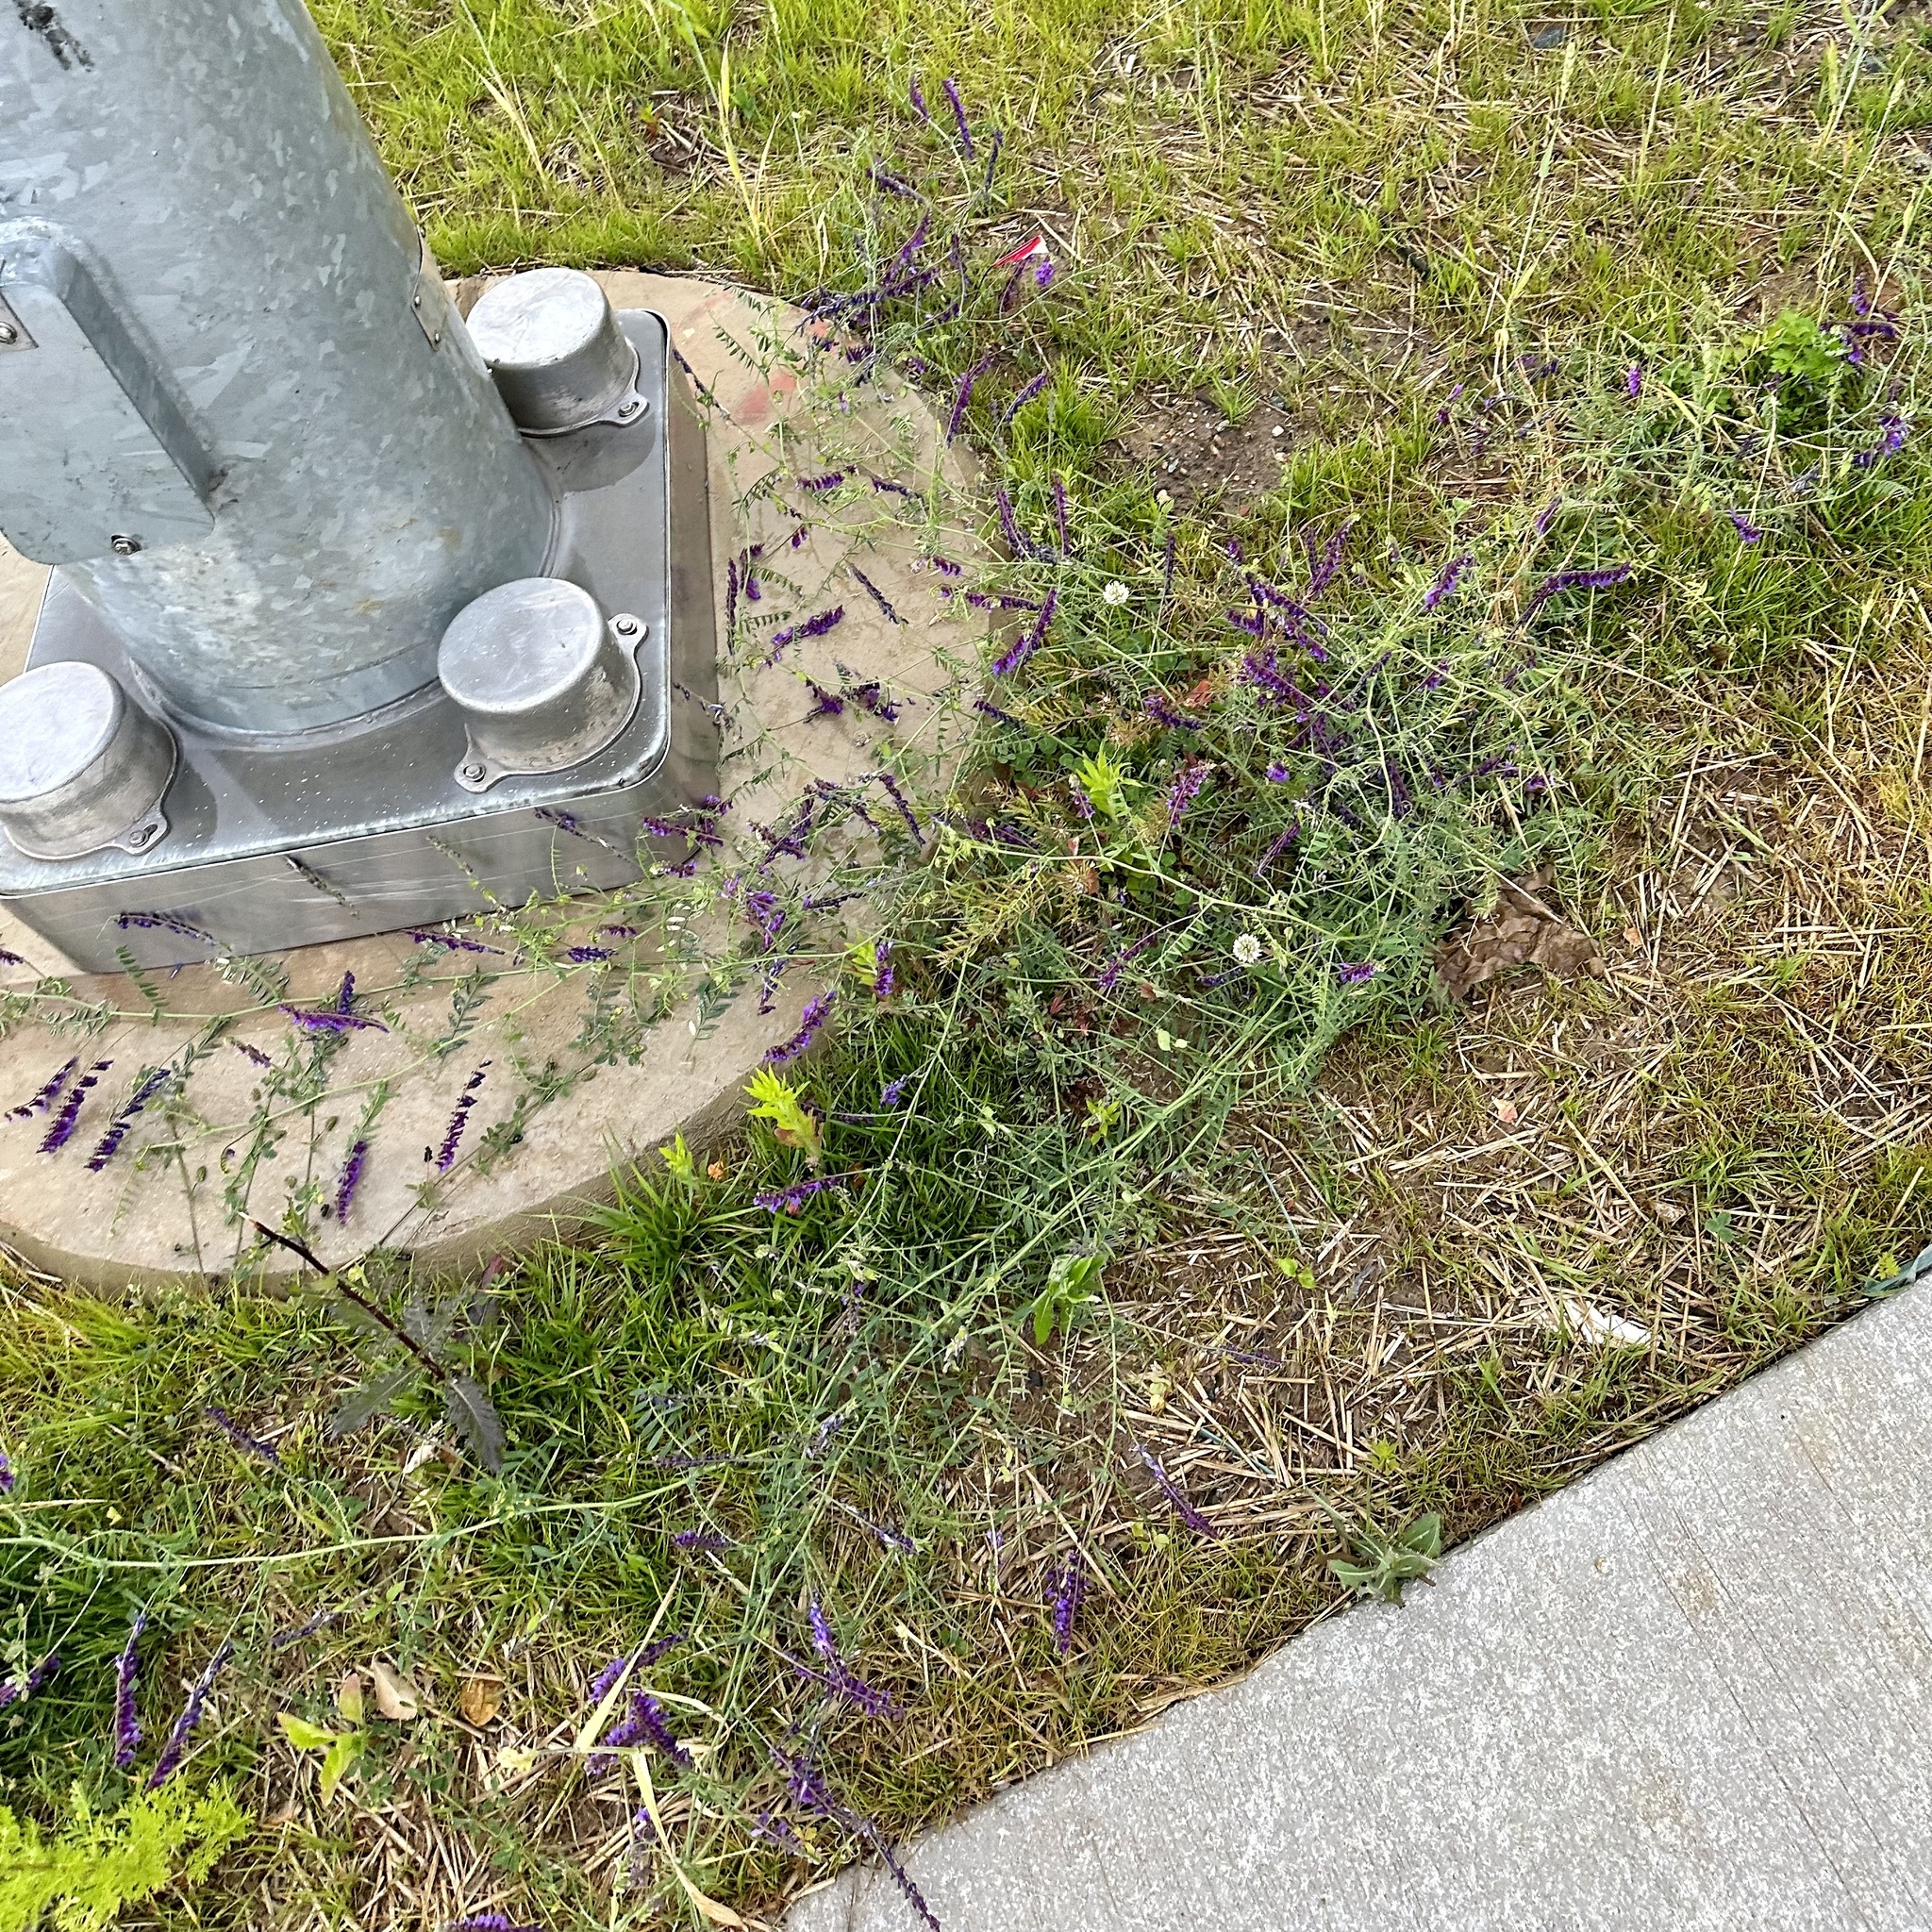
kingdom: Plantae
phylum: Tracheophyta
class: Magnoliopsida
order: Fabales
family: Fabaceae
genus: Vicia
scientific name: Vicia villosa
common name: Fodder vetch
